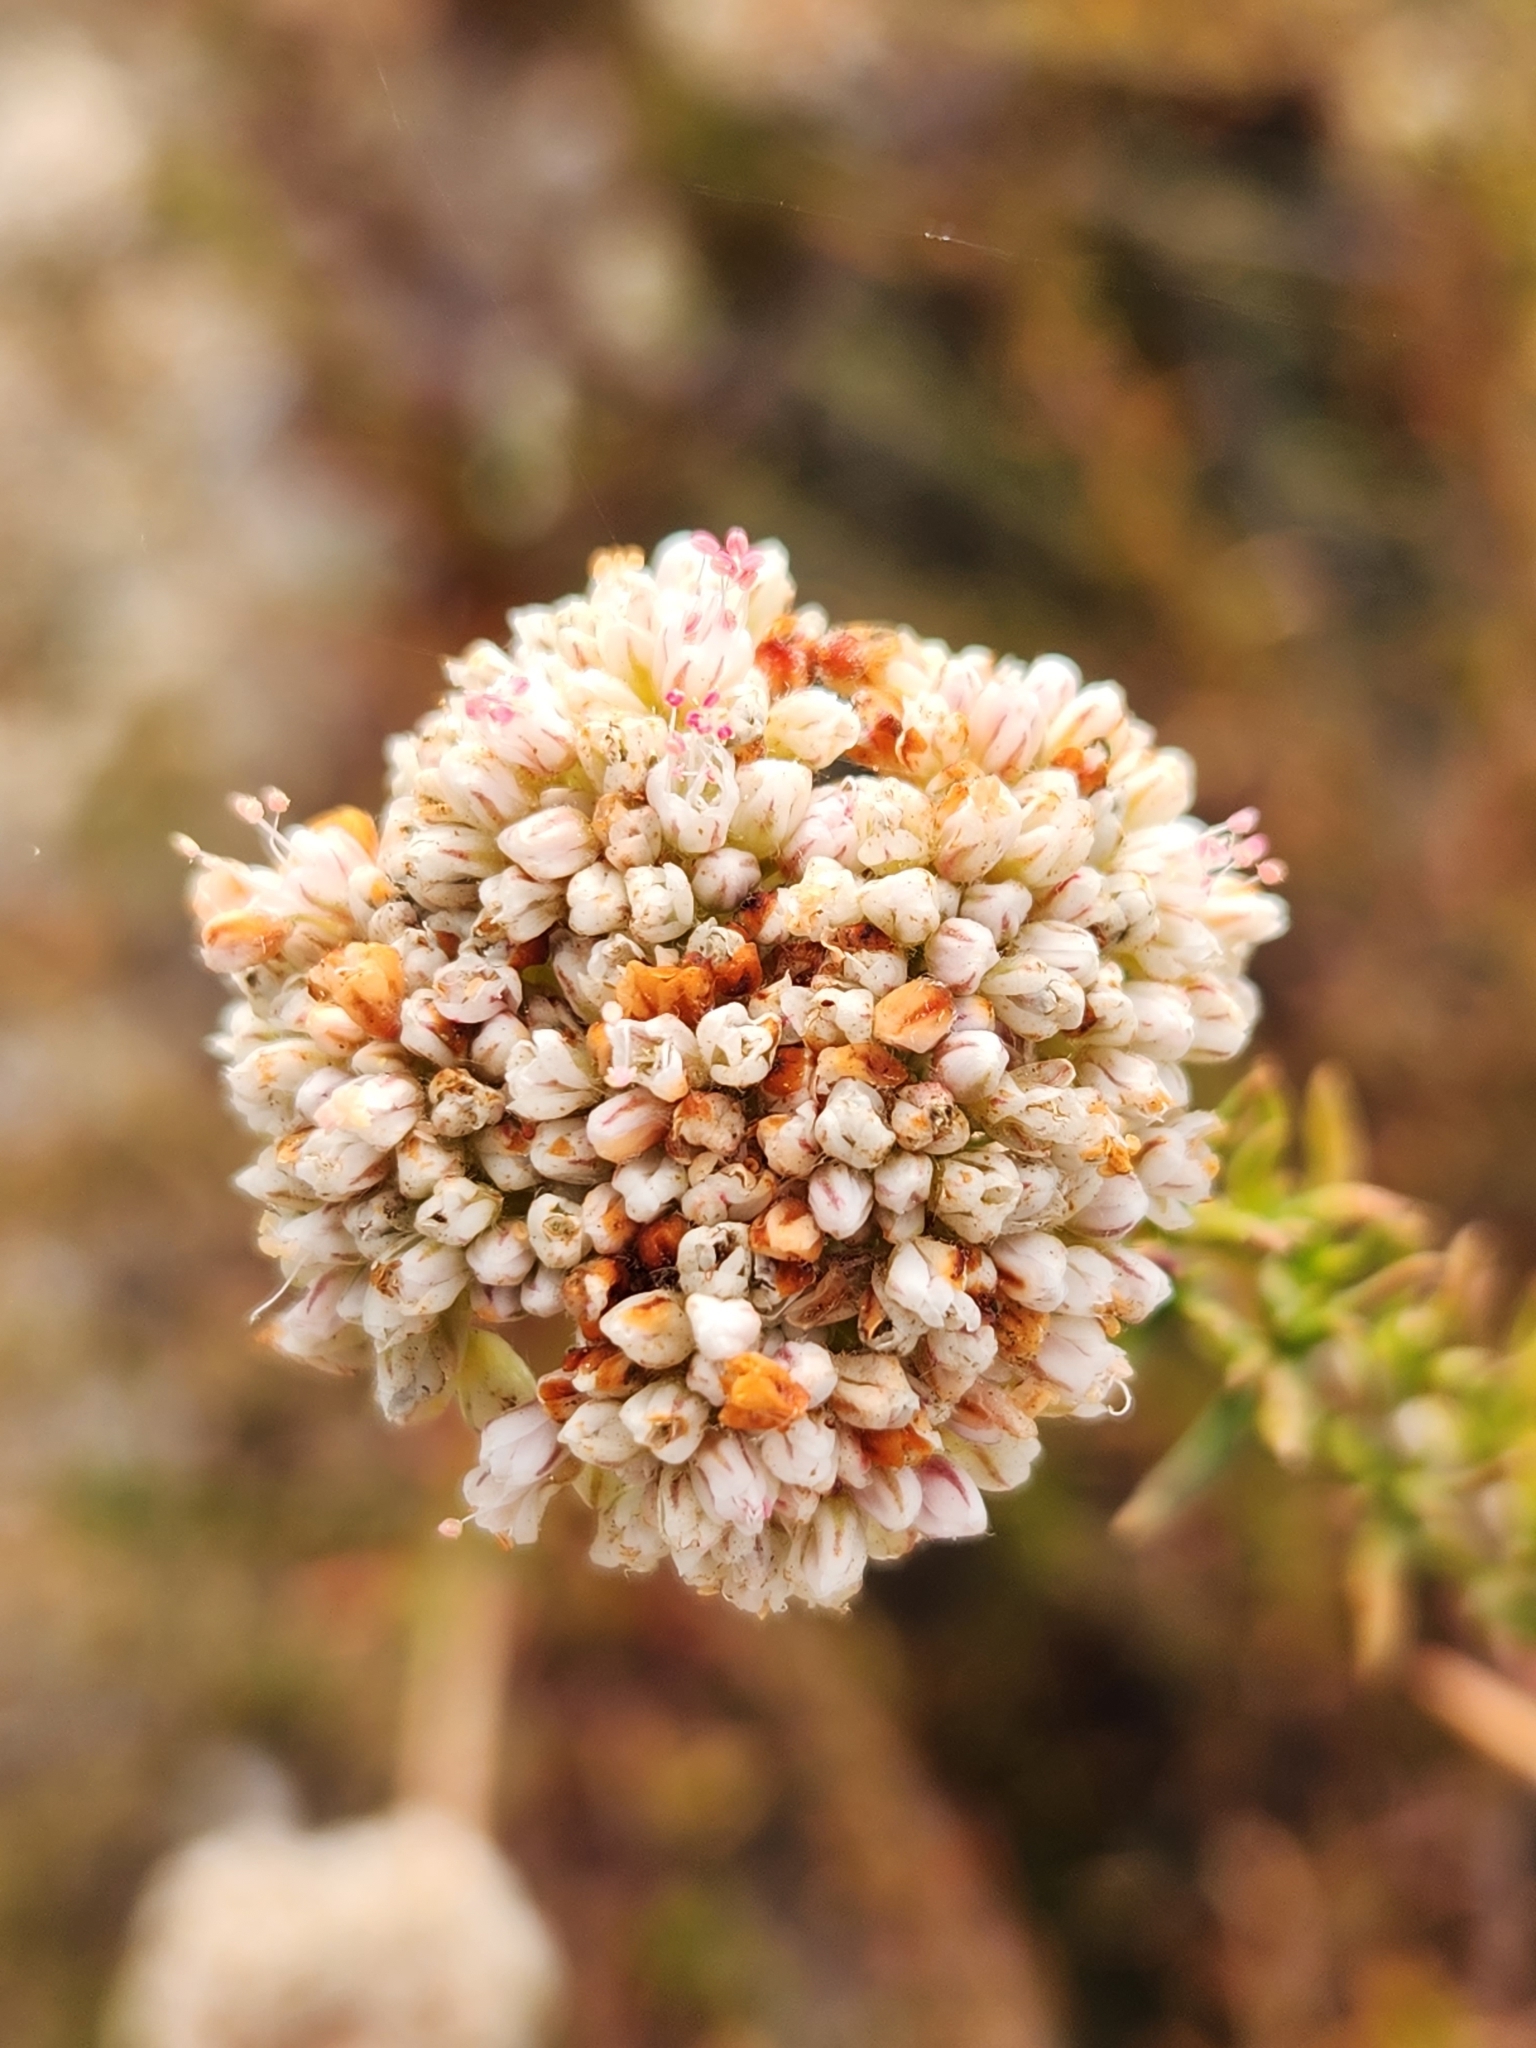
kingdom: Plantae
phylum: Tracheophyta
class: Magnoliopsida
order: Caryophyllales
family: Polygonaceae
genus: Eriogonum
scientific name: Eriogonum fasciculatum
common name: California wild buckwheat
